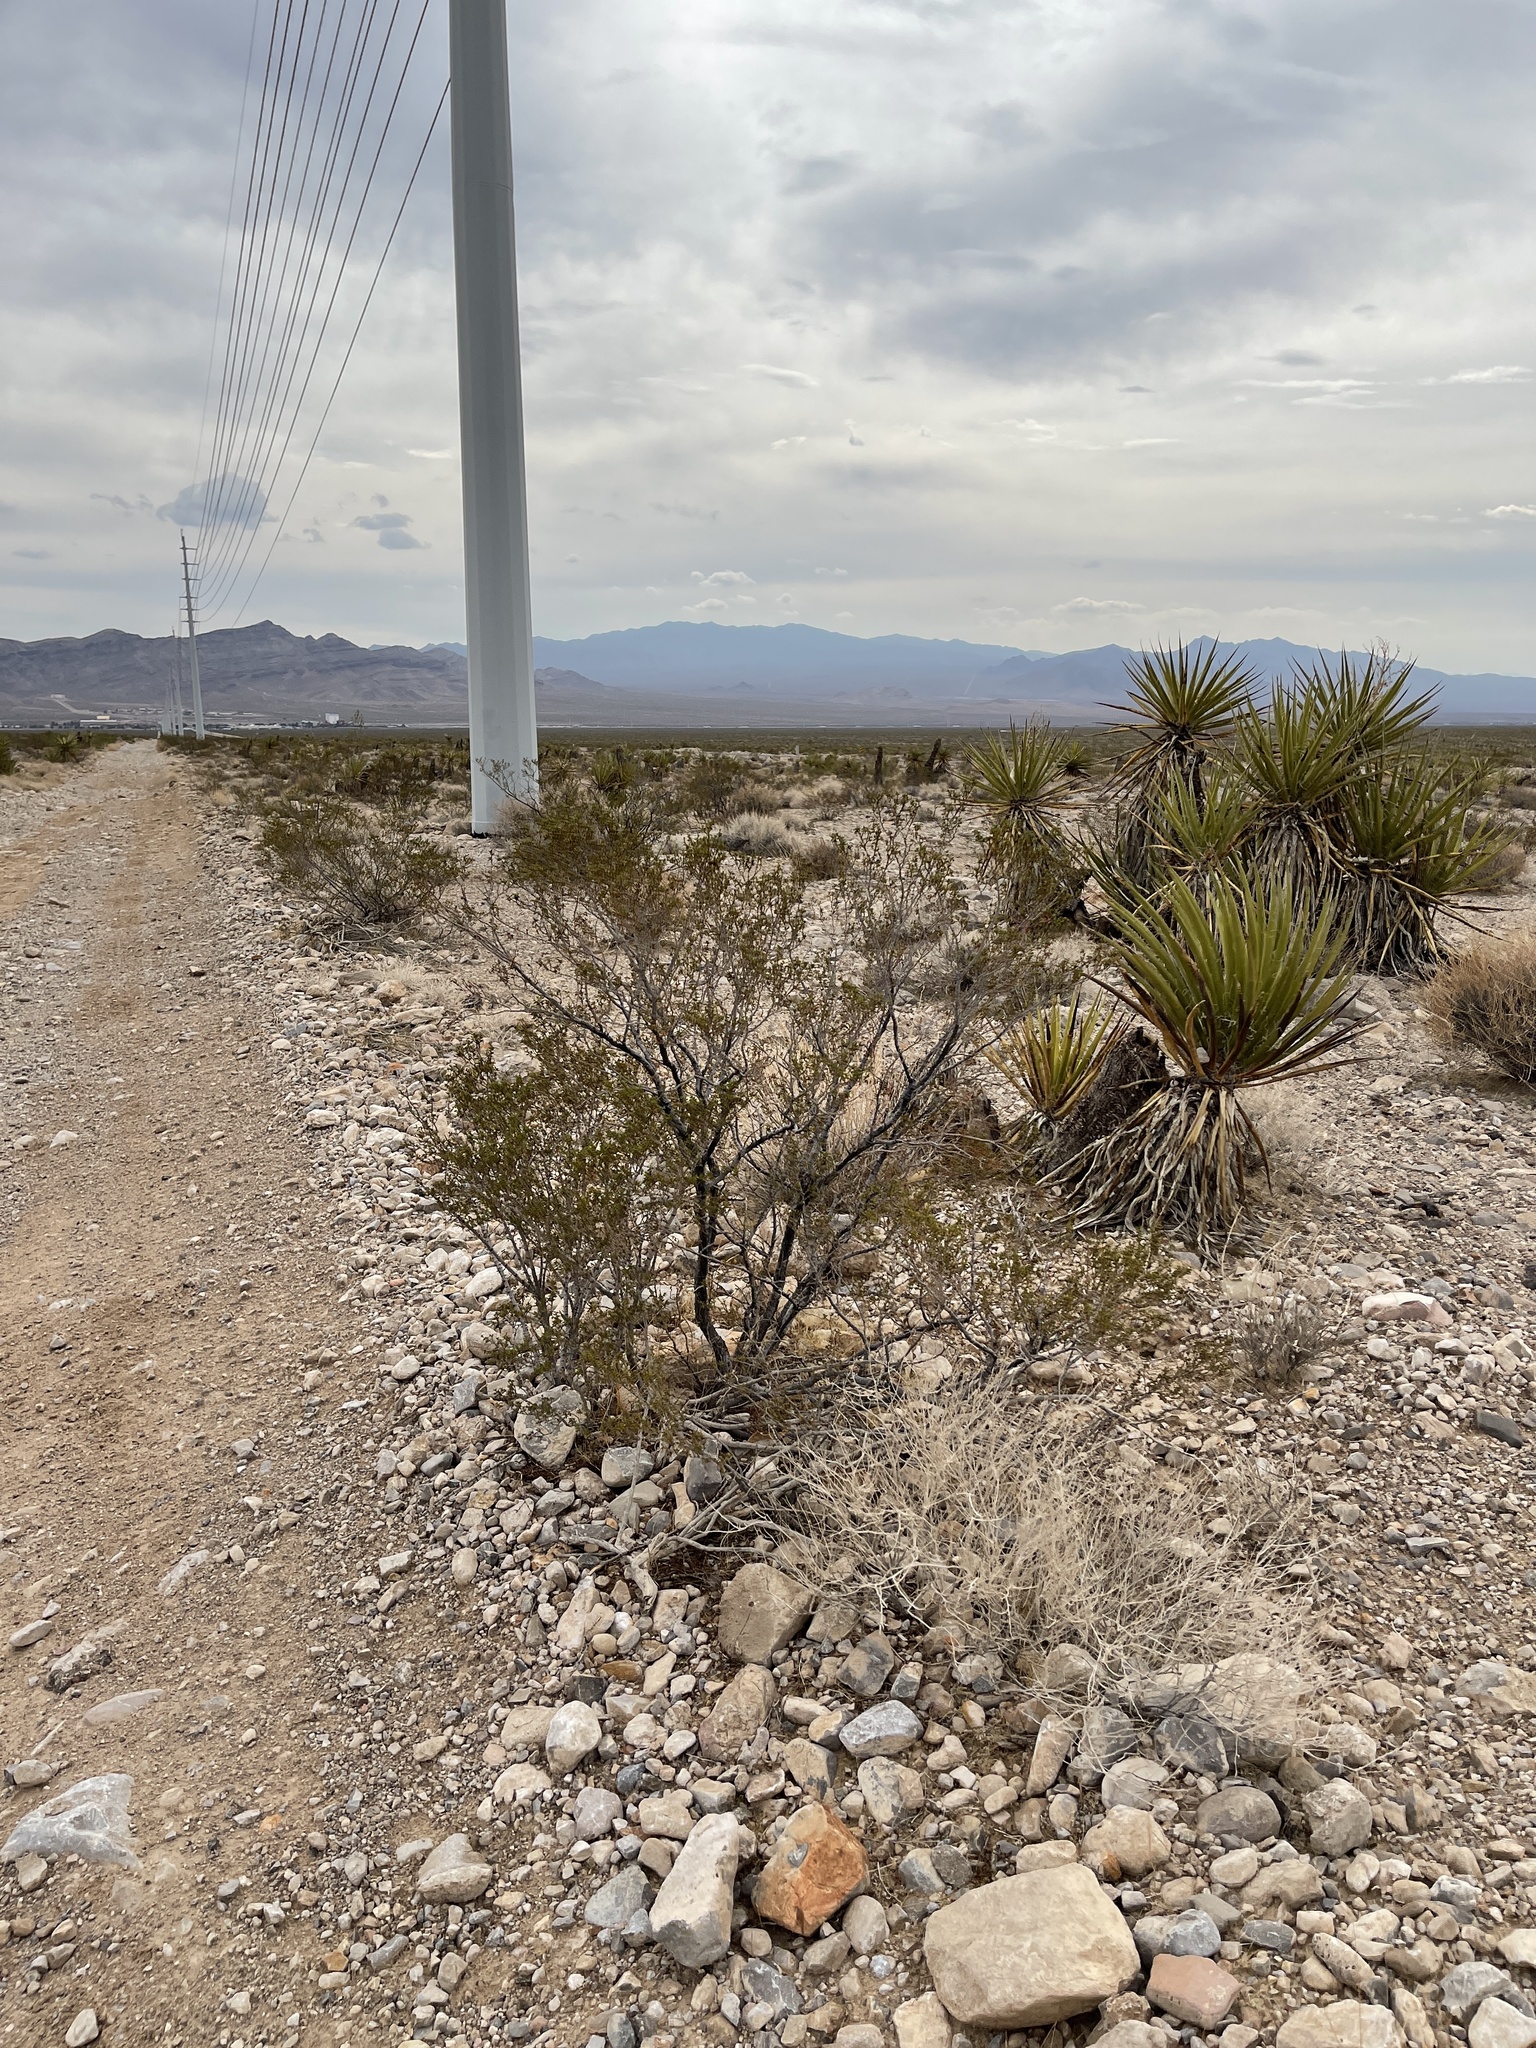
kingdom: Plantae
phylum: Tracheophyta
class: Magnoliopsida
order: Zygophyllales
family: Zygophyllaceae
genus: Larrea
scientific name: Larrea tridentata
